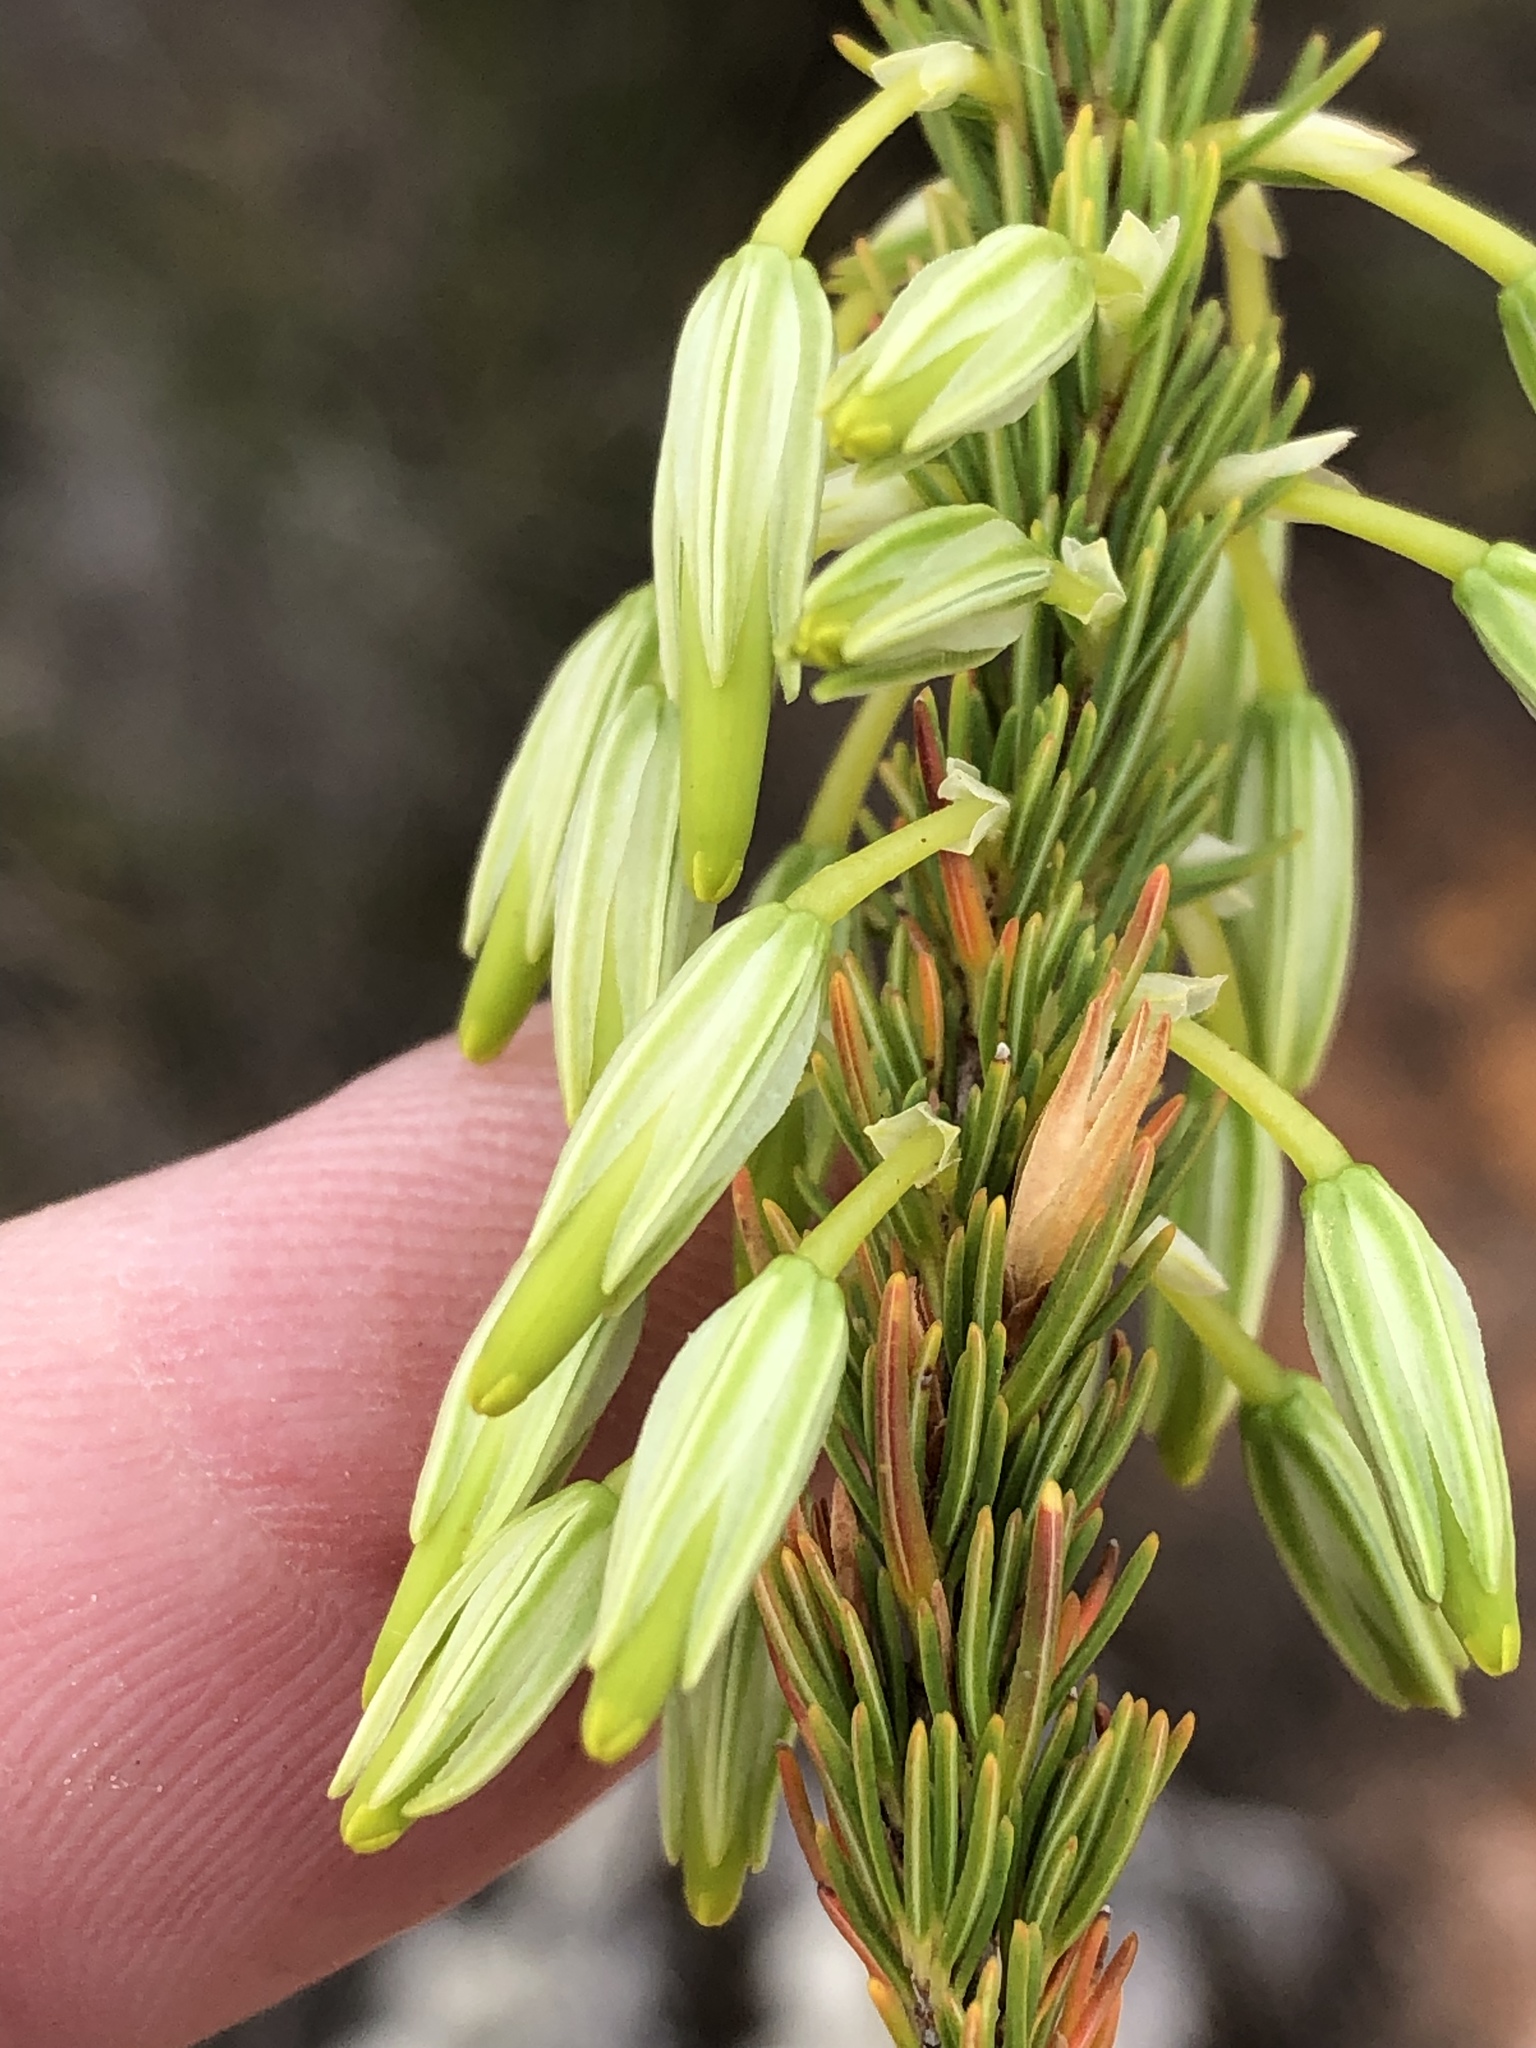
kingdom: Plantae
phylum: Tracheophyta
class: Magnoliopsida
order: Ericales
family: Ericaceae
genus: Erica
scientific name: Erica plukenetii
